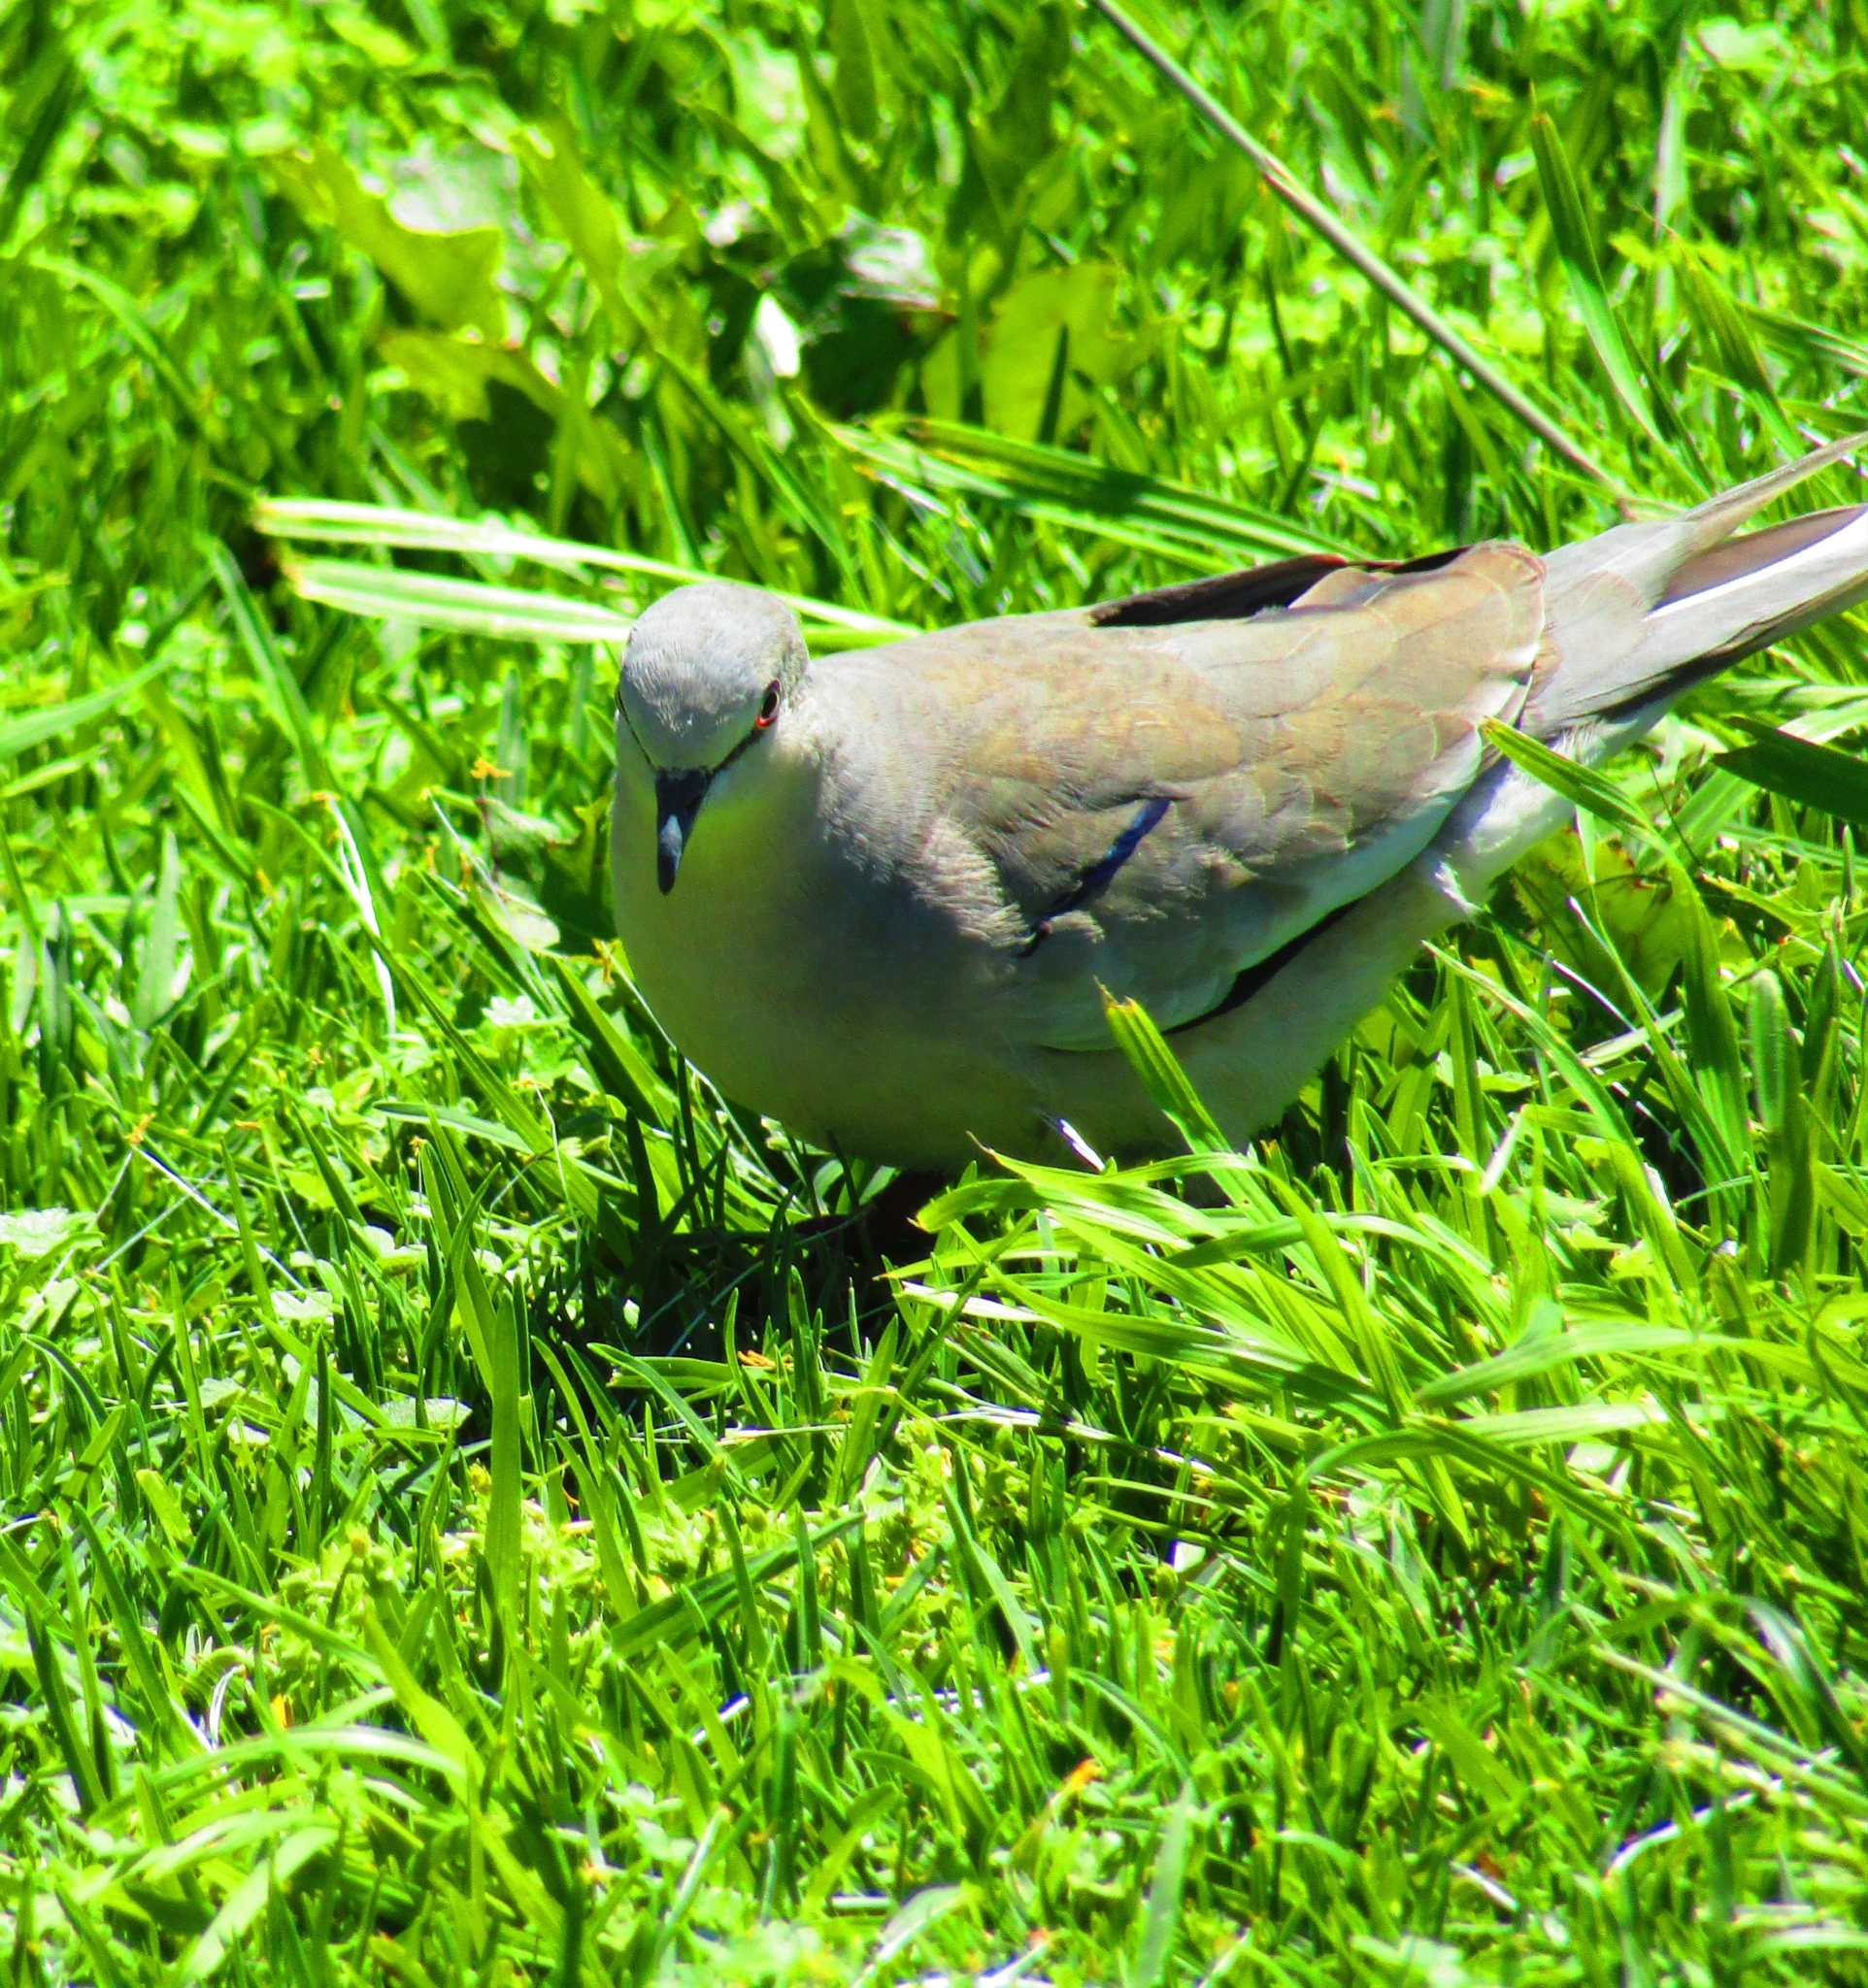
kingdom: Animalia
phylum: Chordata
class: Aves
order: Columbiformes
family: Columbidae
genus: Columbina
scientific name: Columbina picui
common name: Picui ground dove
